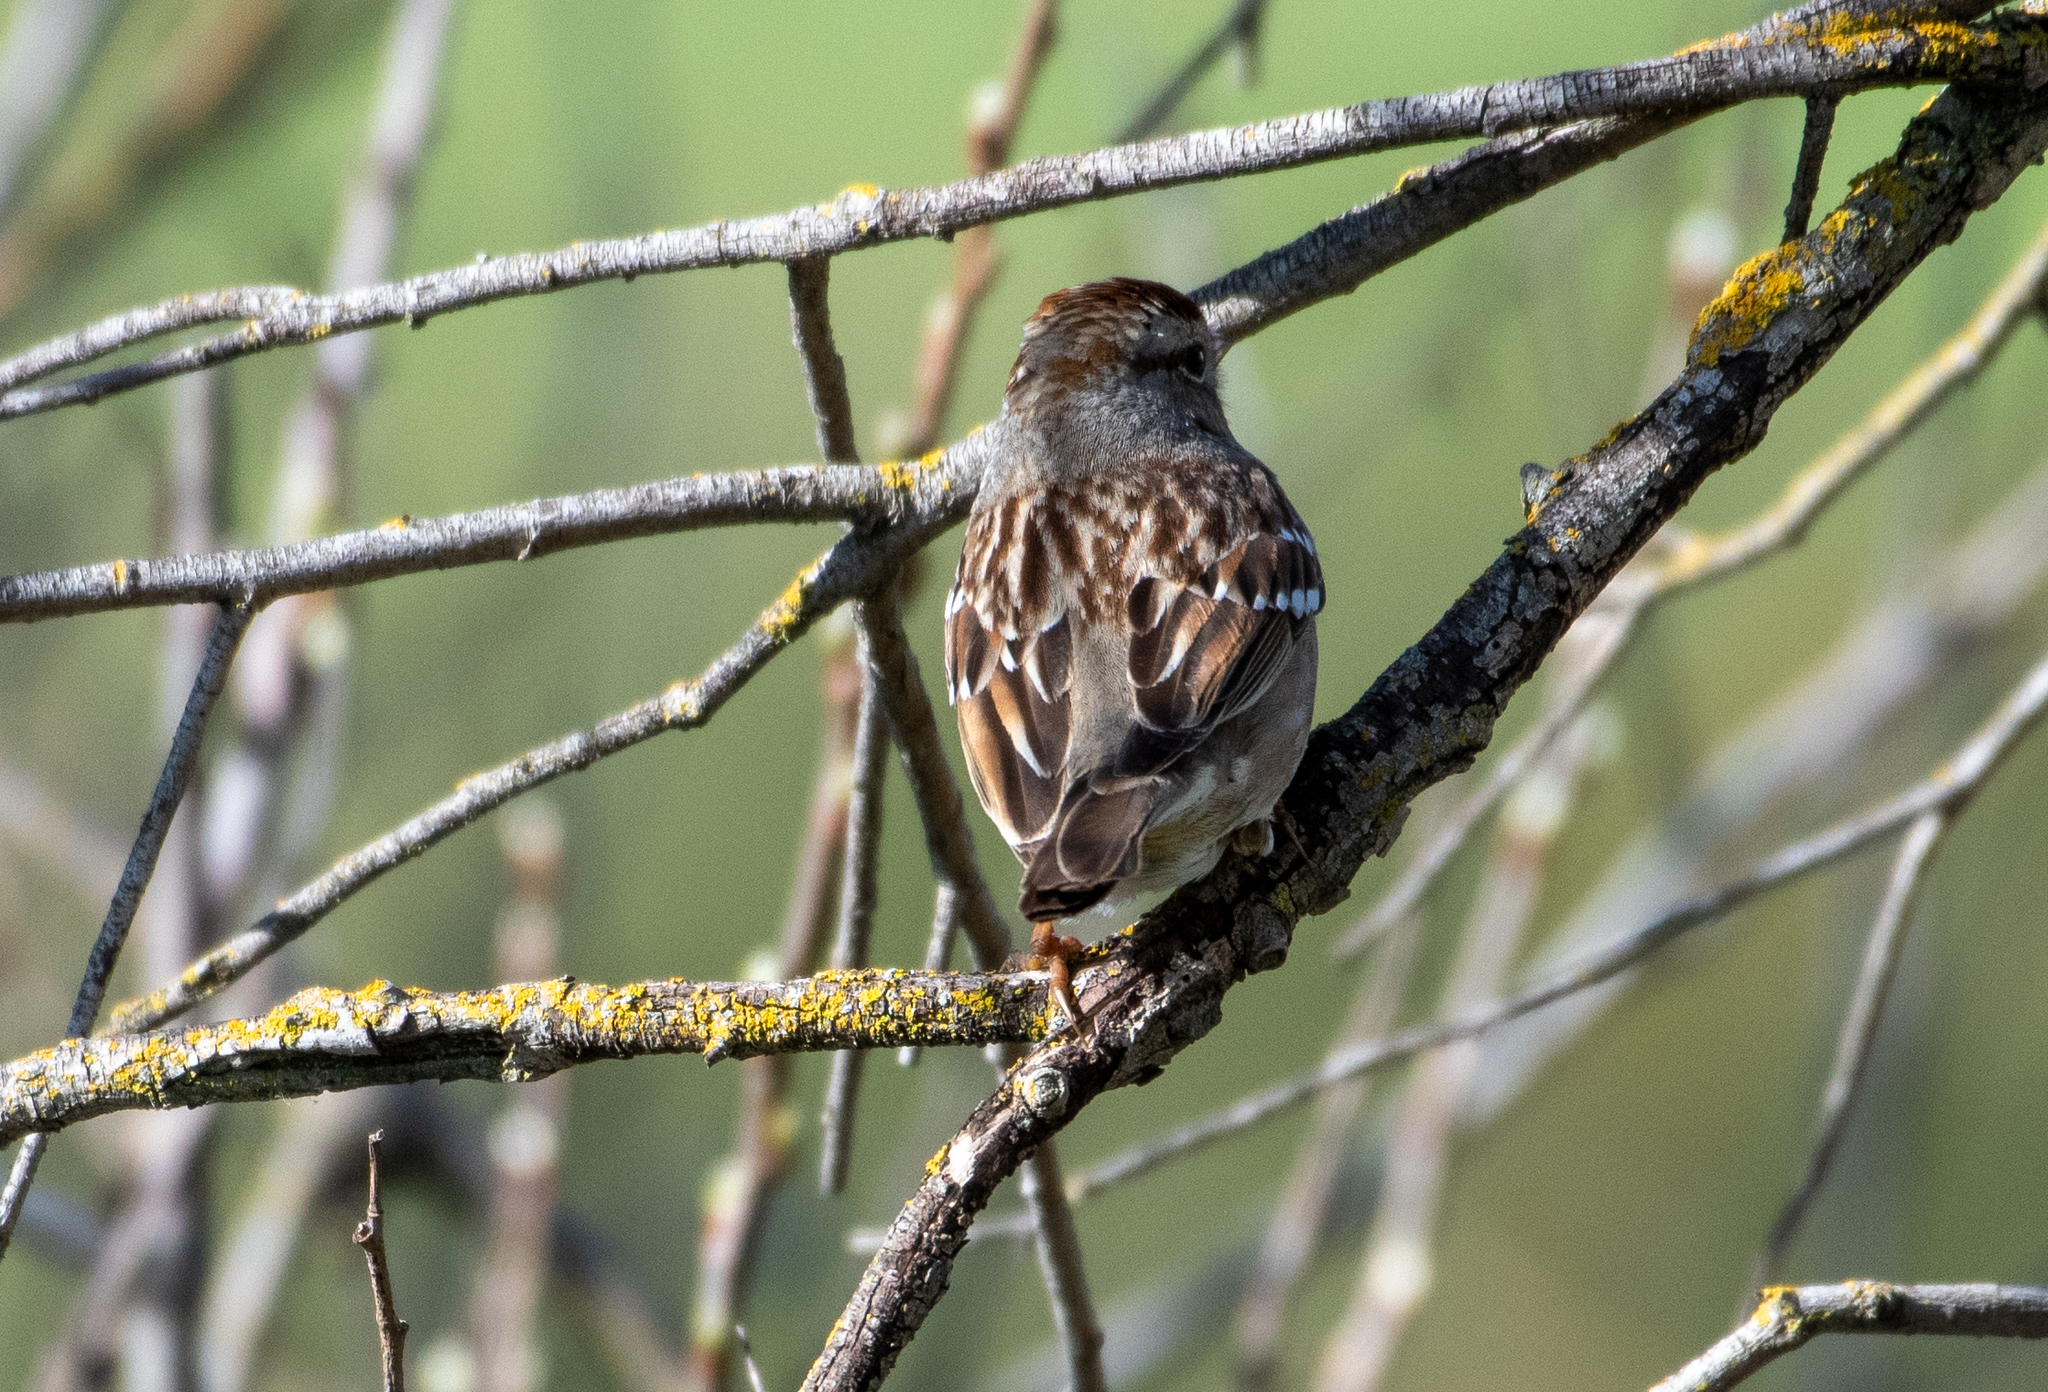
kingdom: Animalia
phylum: Chordata
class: Aves
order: Passeriformes
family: Passerellidae
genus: Zonotrichia
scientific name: Zonotrichia leucophrys
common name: White-crowned sparrow
